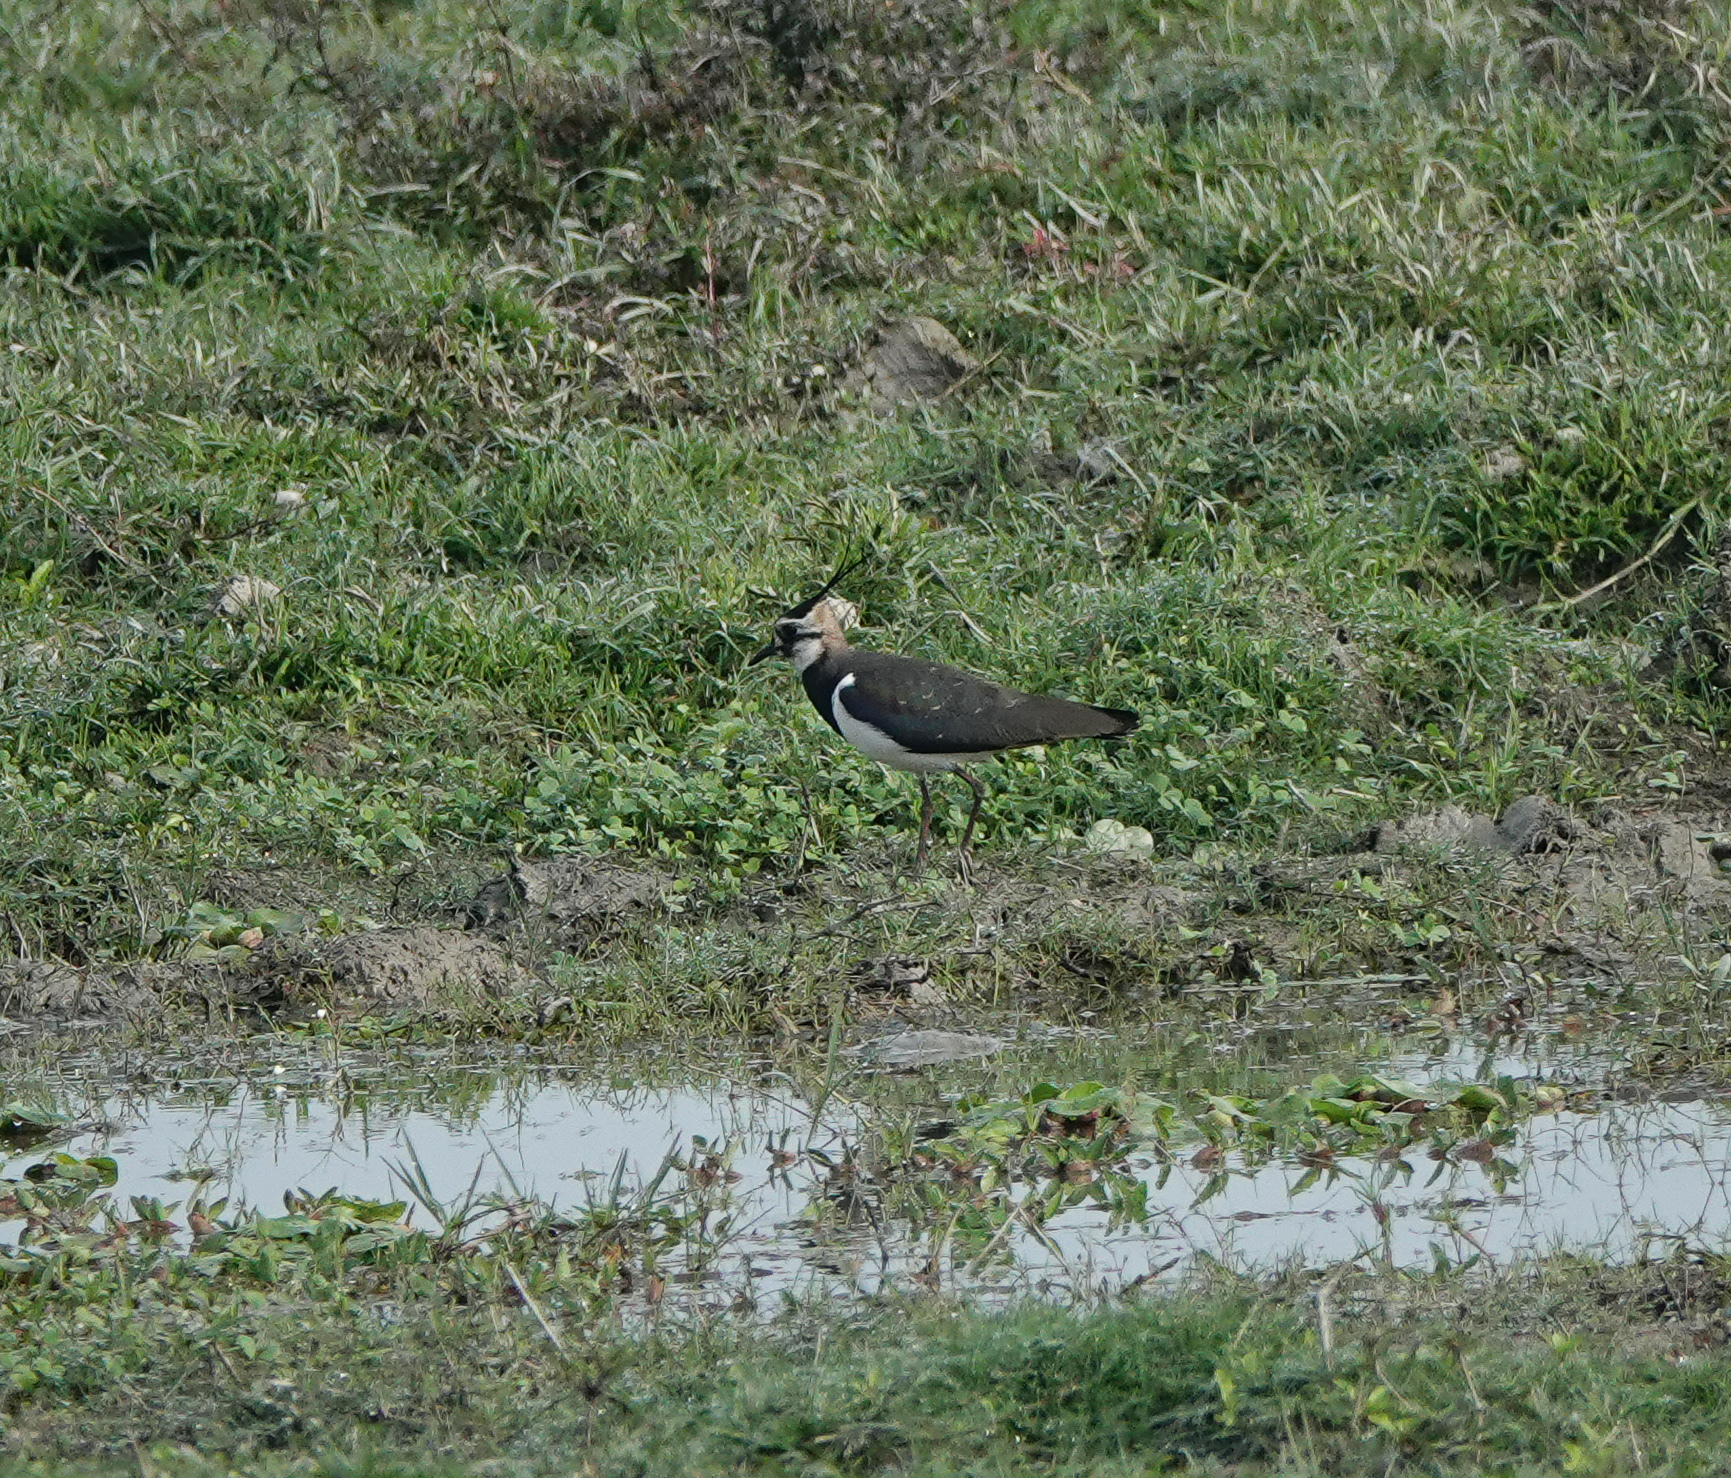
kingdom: Animalia
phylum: Chordata
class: Aves
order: Charadriiformes
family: Charadriidae
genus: Vanellus
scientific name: Vanellus vanellus
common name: Northern lapwing
